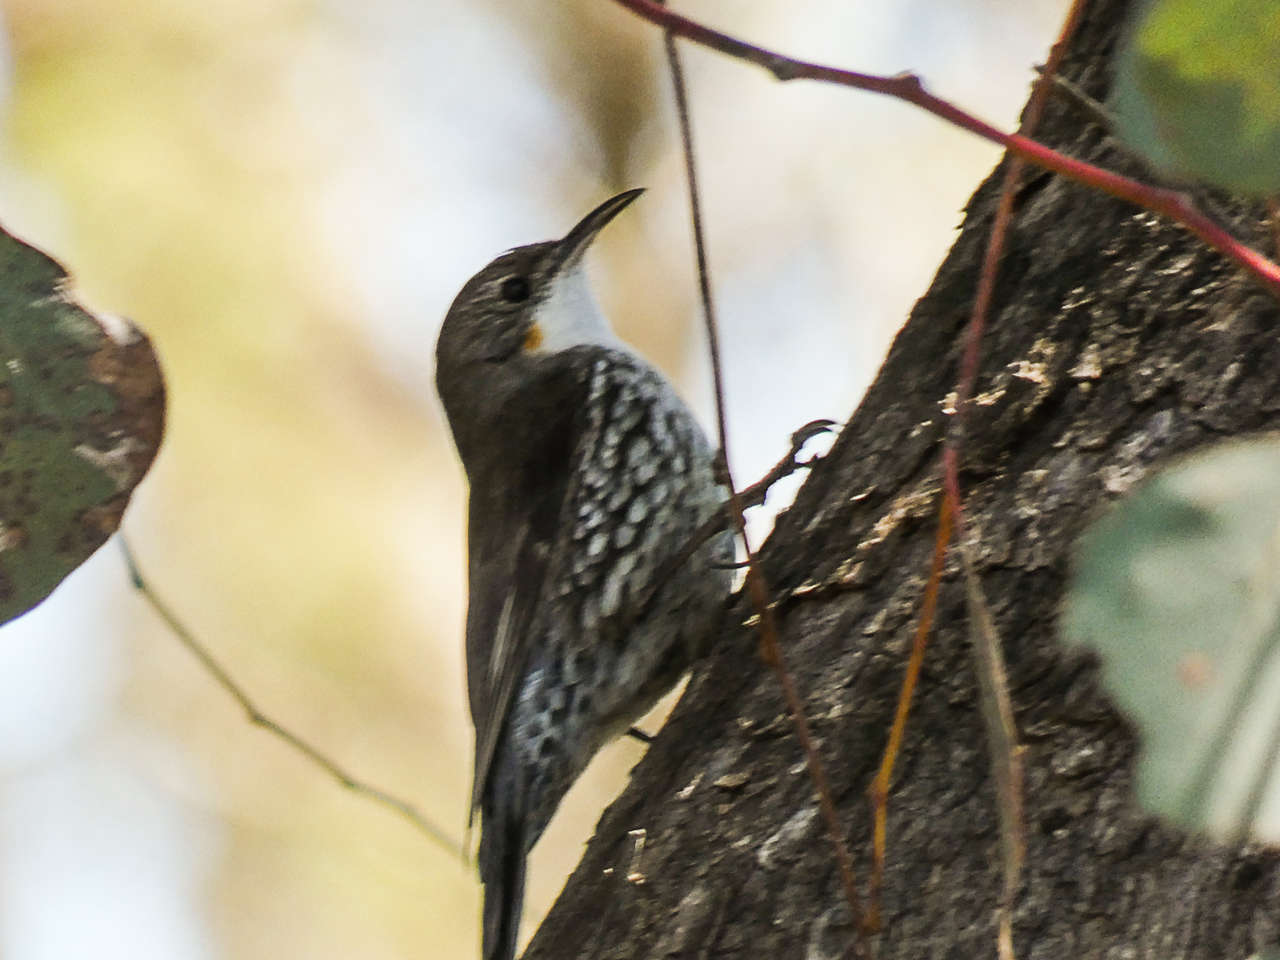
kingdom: Animalia
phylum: Chordata
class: Aves
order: Passeriformes
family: Climacteridae
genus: Cormobates
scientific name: Cormobates leucophaea
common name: White-throated treecreeper
